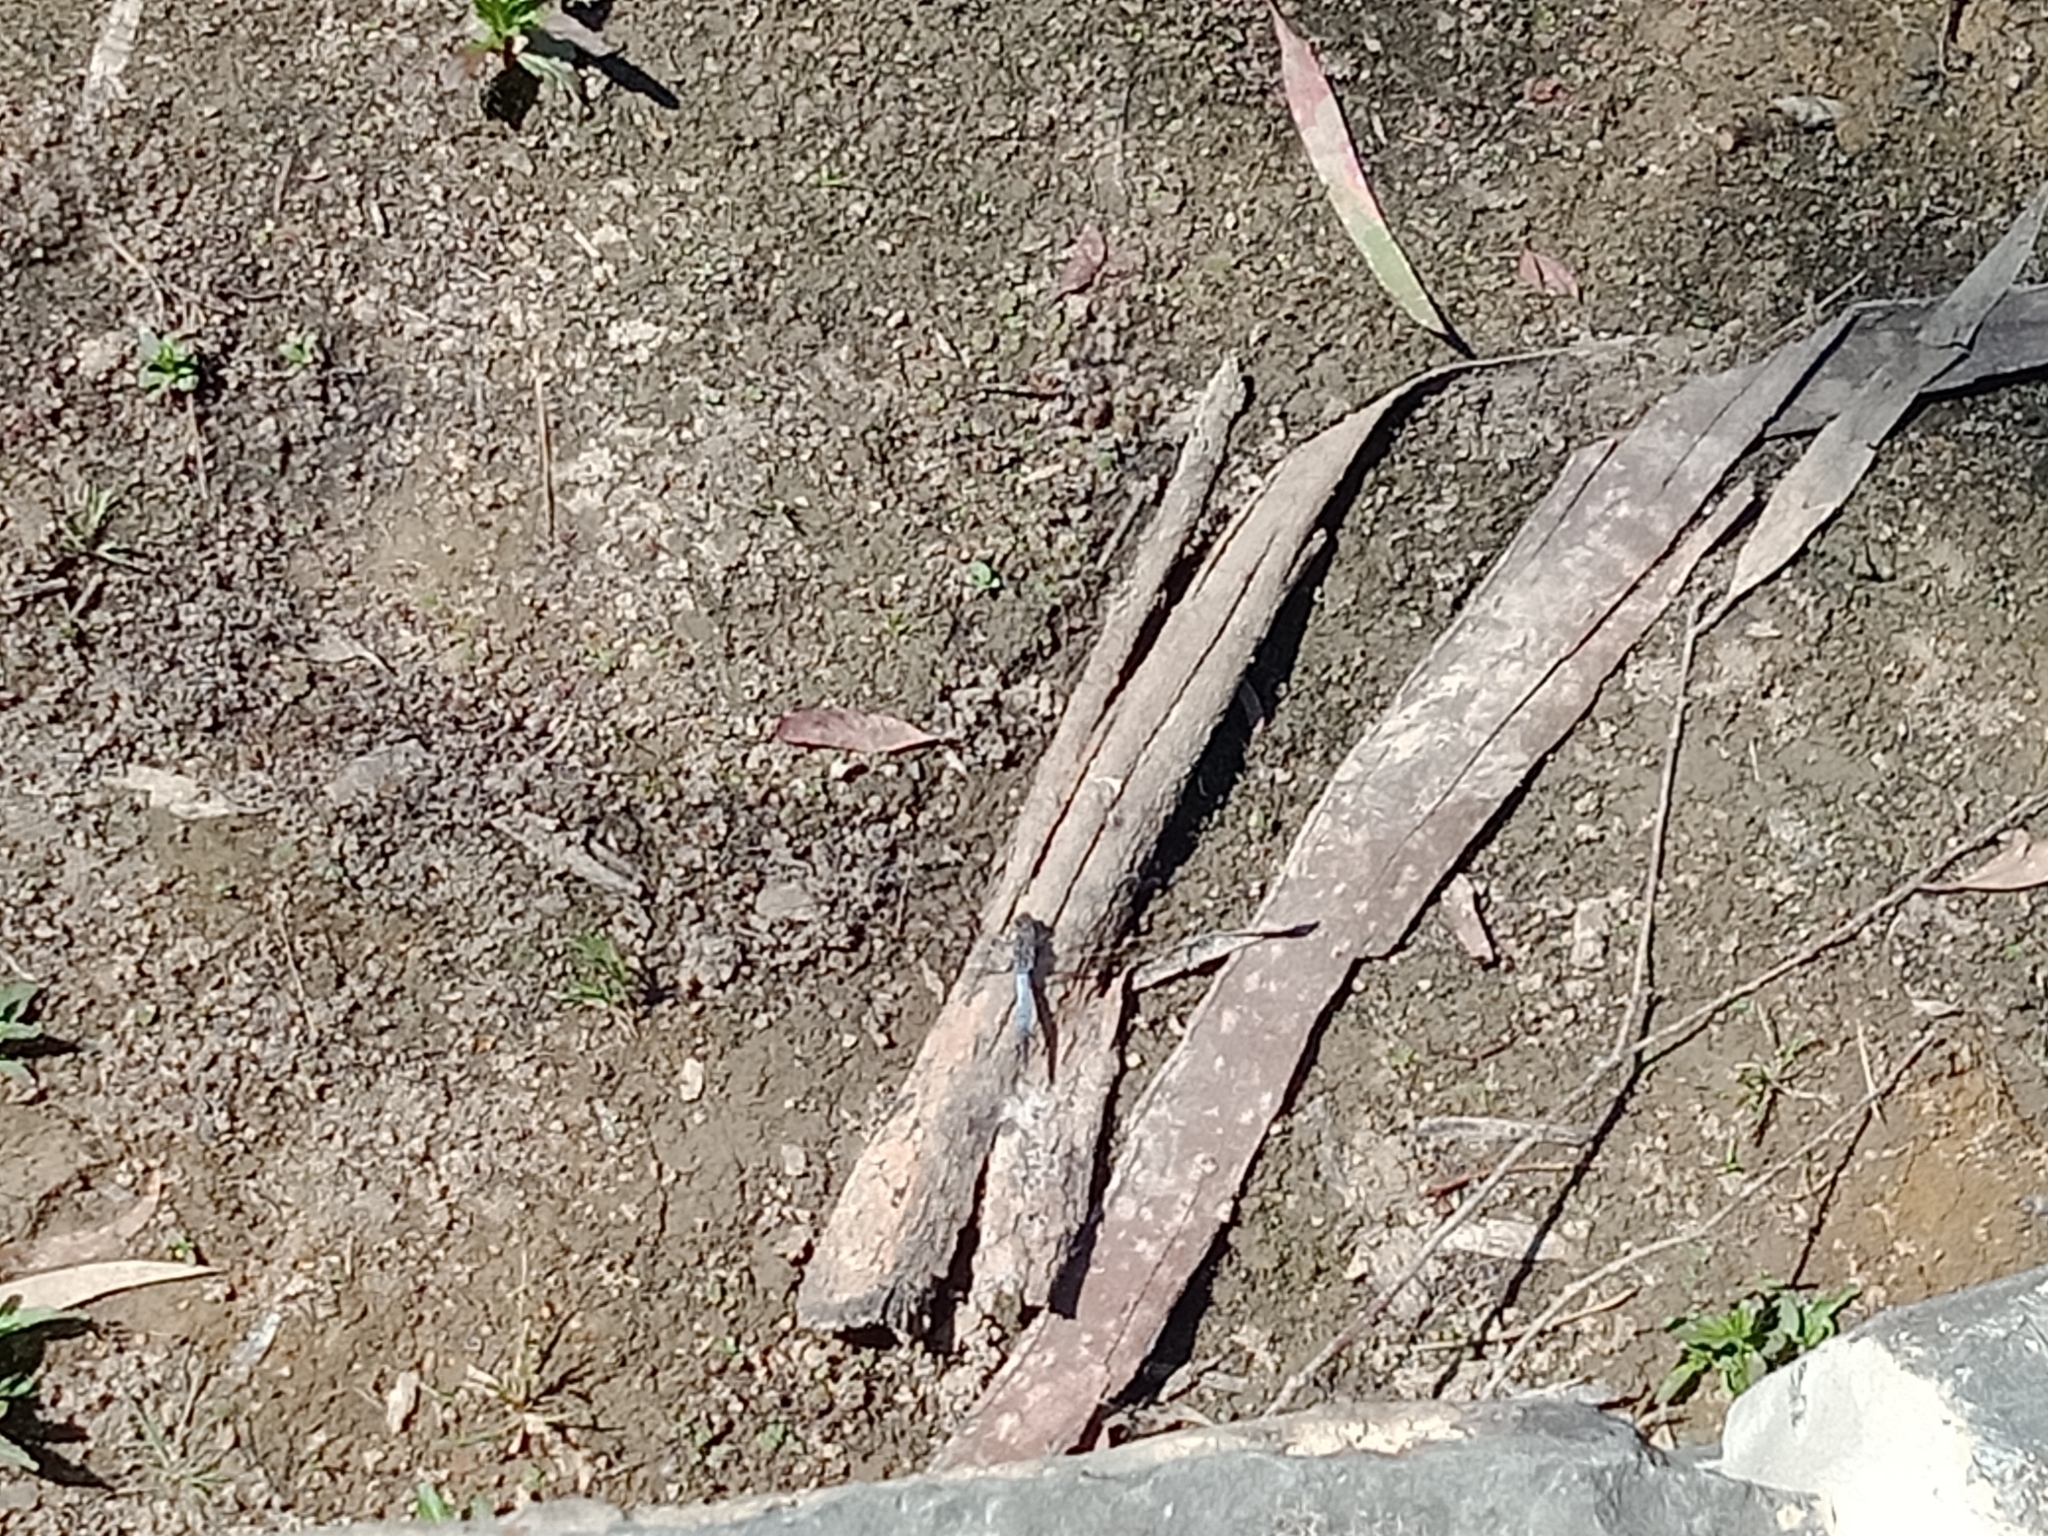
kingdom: Animalia
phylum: Arthropoda
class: Insecta
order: Odonata
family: Libellulidae
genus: Orthetrum
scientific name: Orthetrum caledonicum
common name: Blue skimmer
